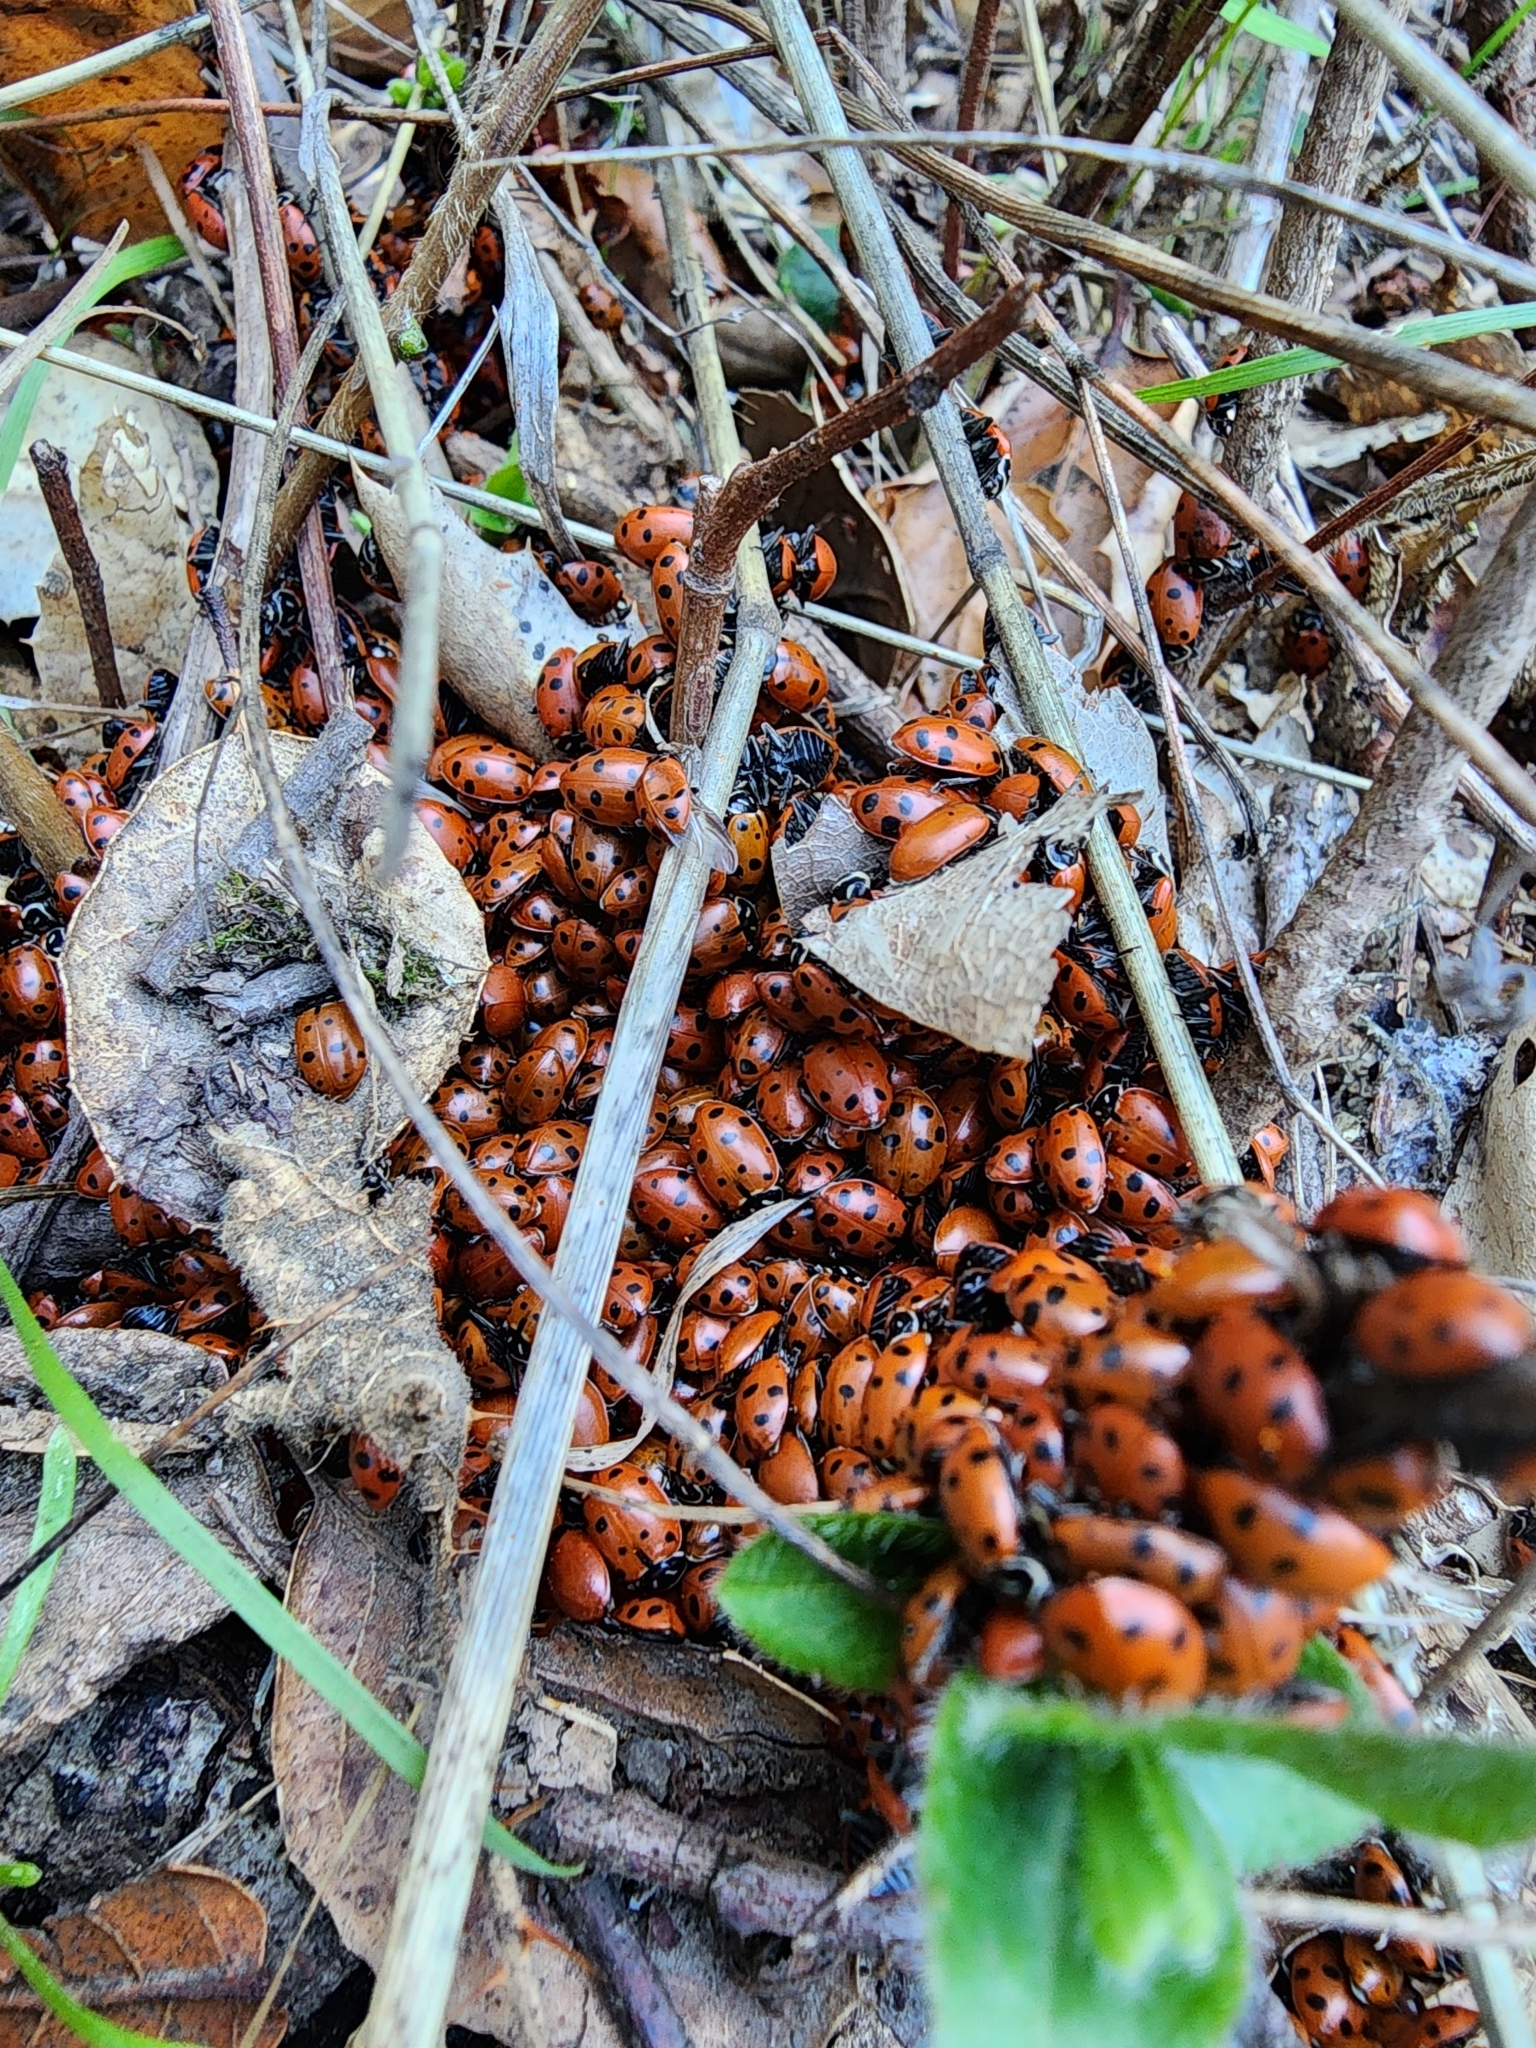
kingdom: Animalia
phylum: Arthropoda
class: Insecta
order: Coleoptera
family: Coccinellidae
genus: Hippodamia
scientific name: Hippodamia convergens
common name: Convergent lady beetle
